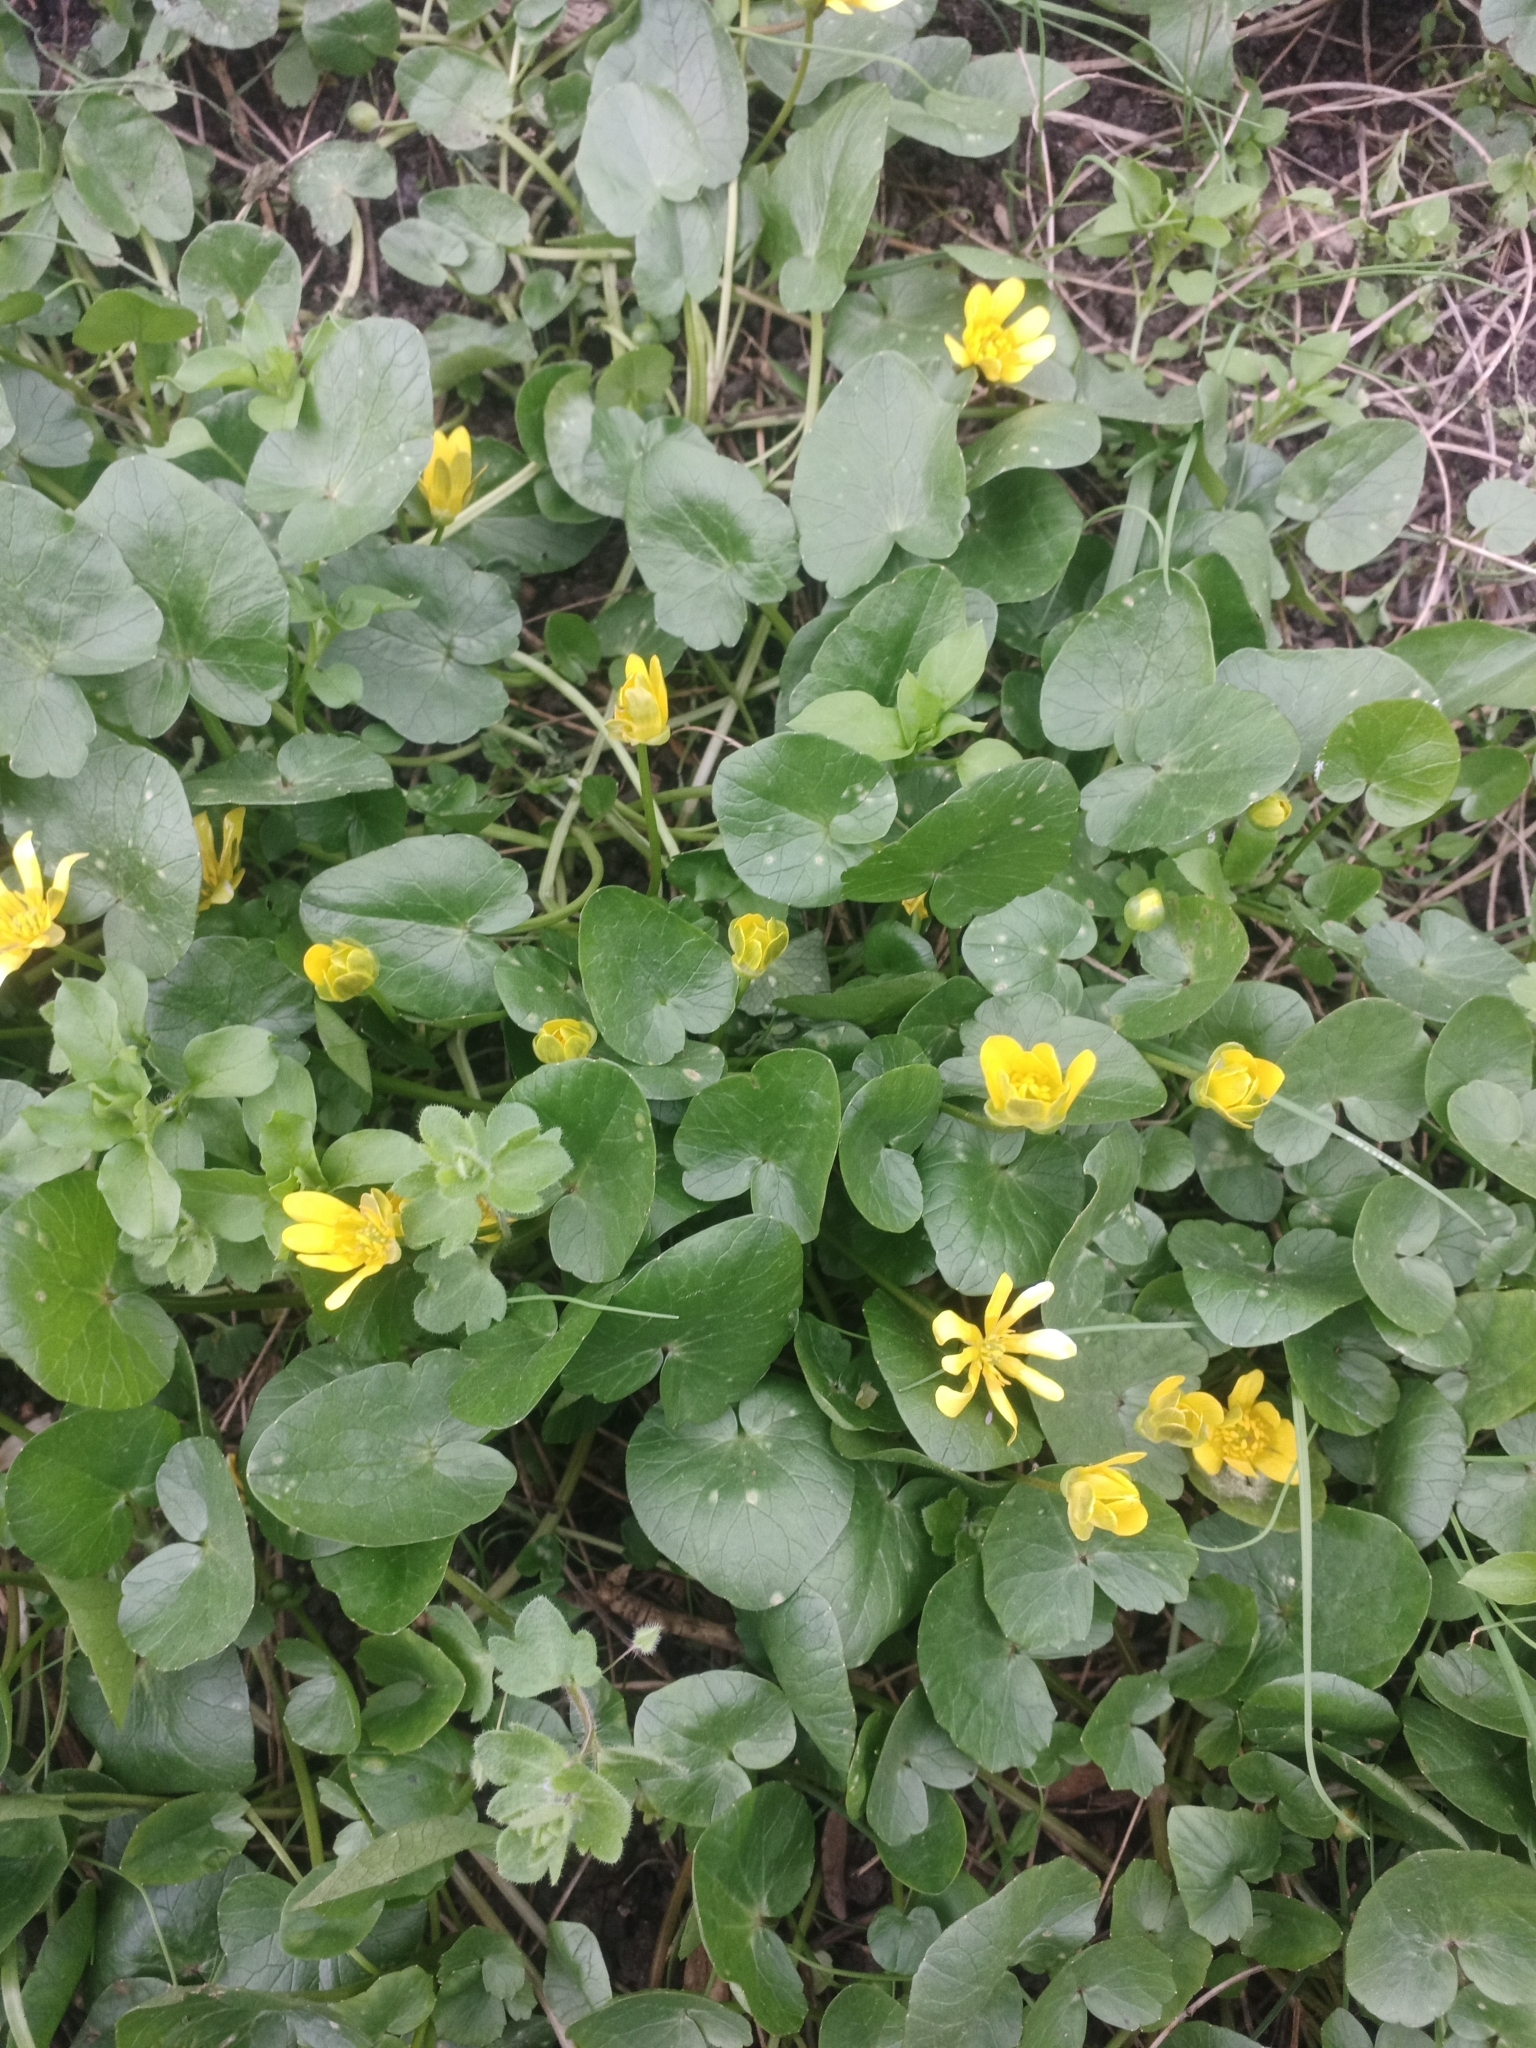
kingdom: Plantae
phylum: Tracheophyta
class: Magnoliopsida
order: Ranunculales
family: Ranunculaceae
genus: Ficaria
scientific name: Ficaria verna
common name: Lesser celandine
